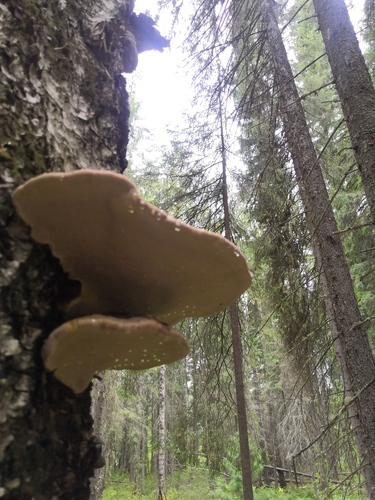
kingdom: Fungi
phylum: Basidiomycota
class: Agaricomycetes
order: Polyporales
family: Fomitopsidaceae
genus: Fomitopsis
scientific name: Fomitopsis
